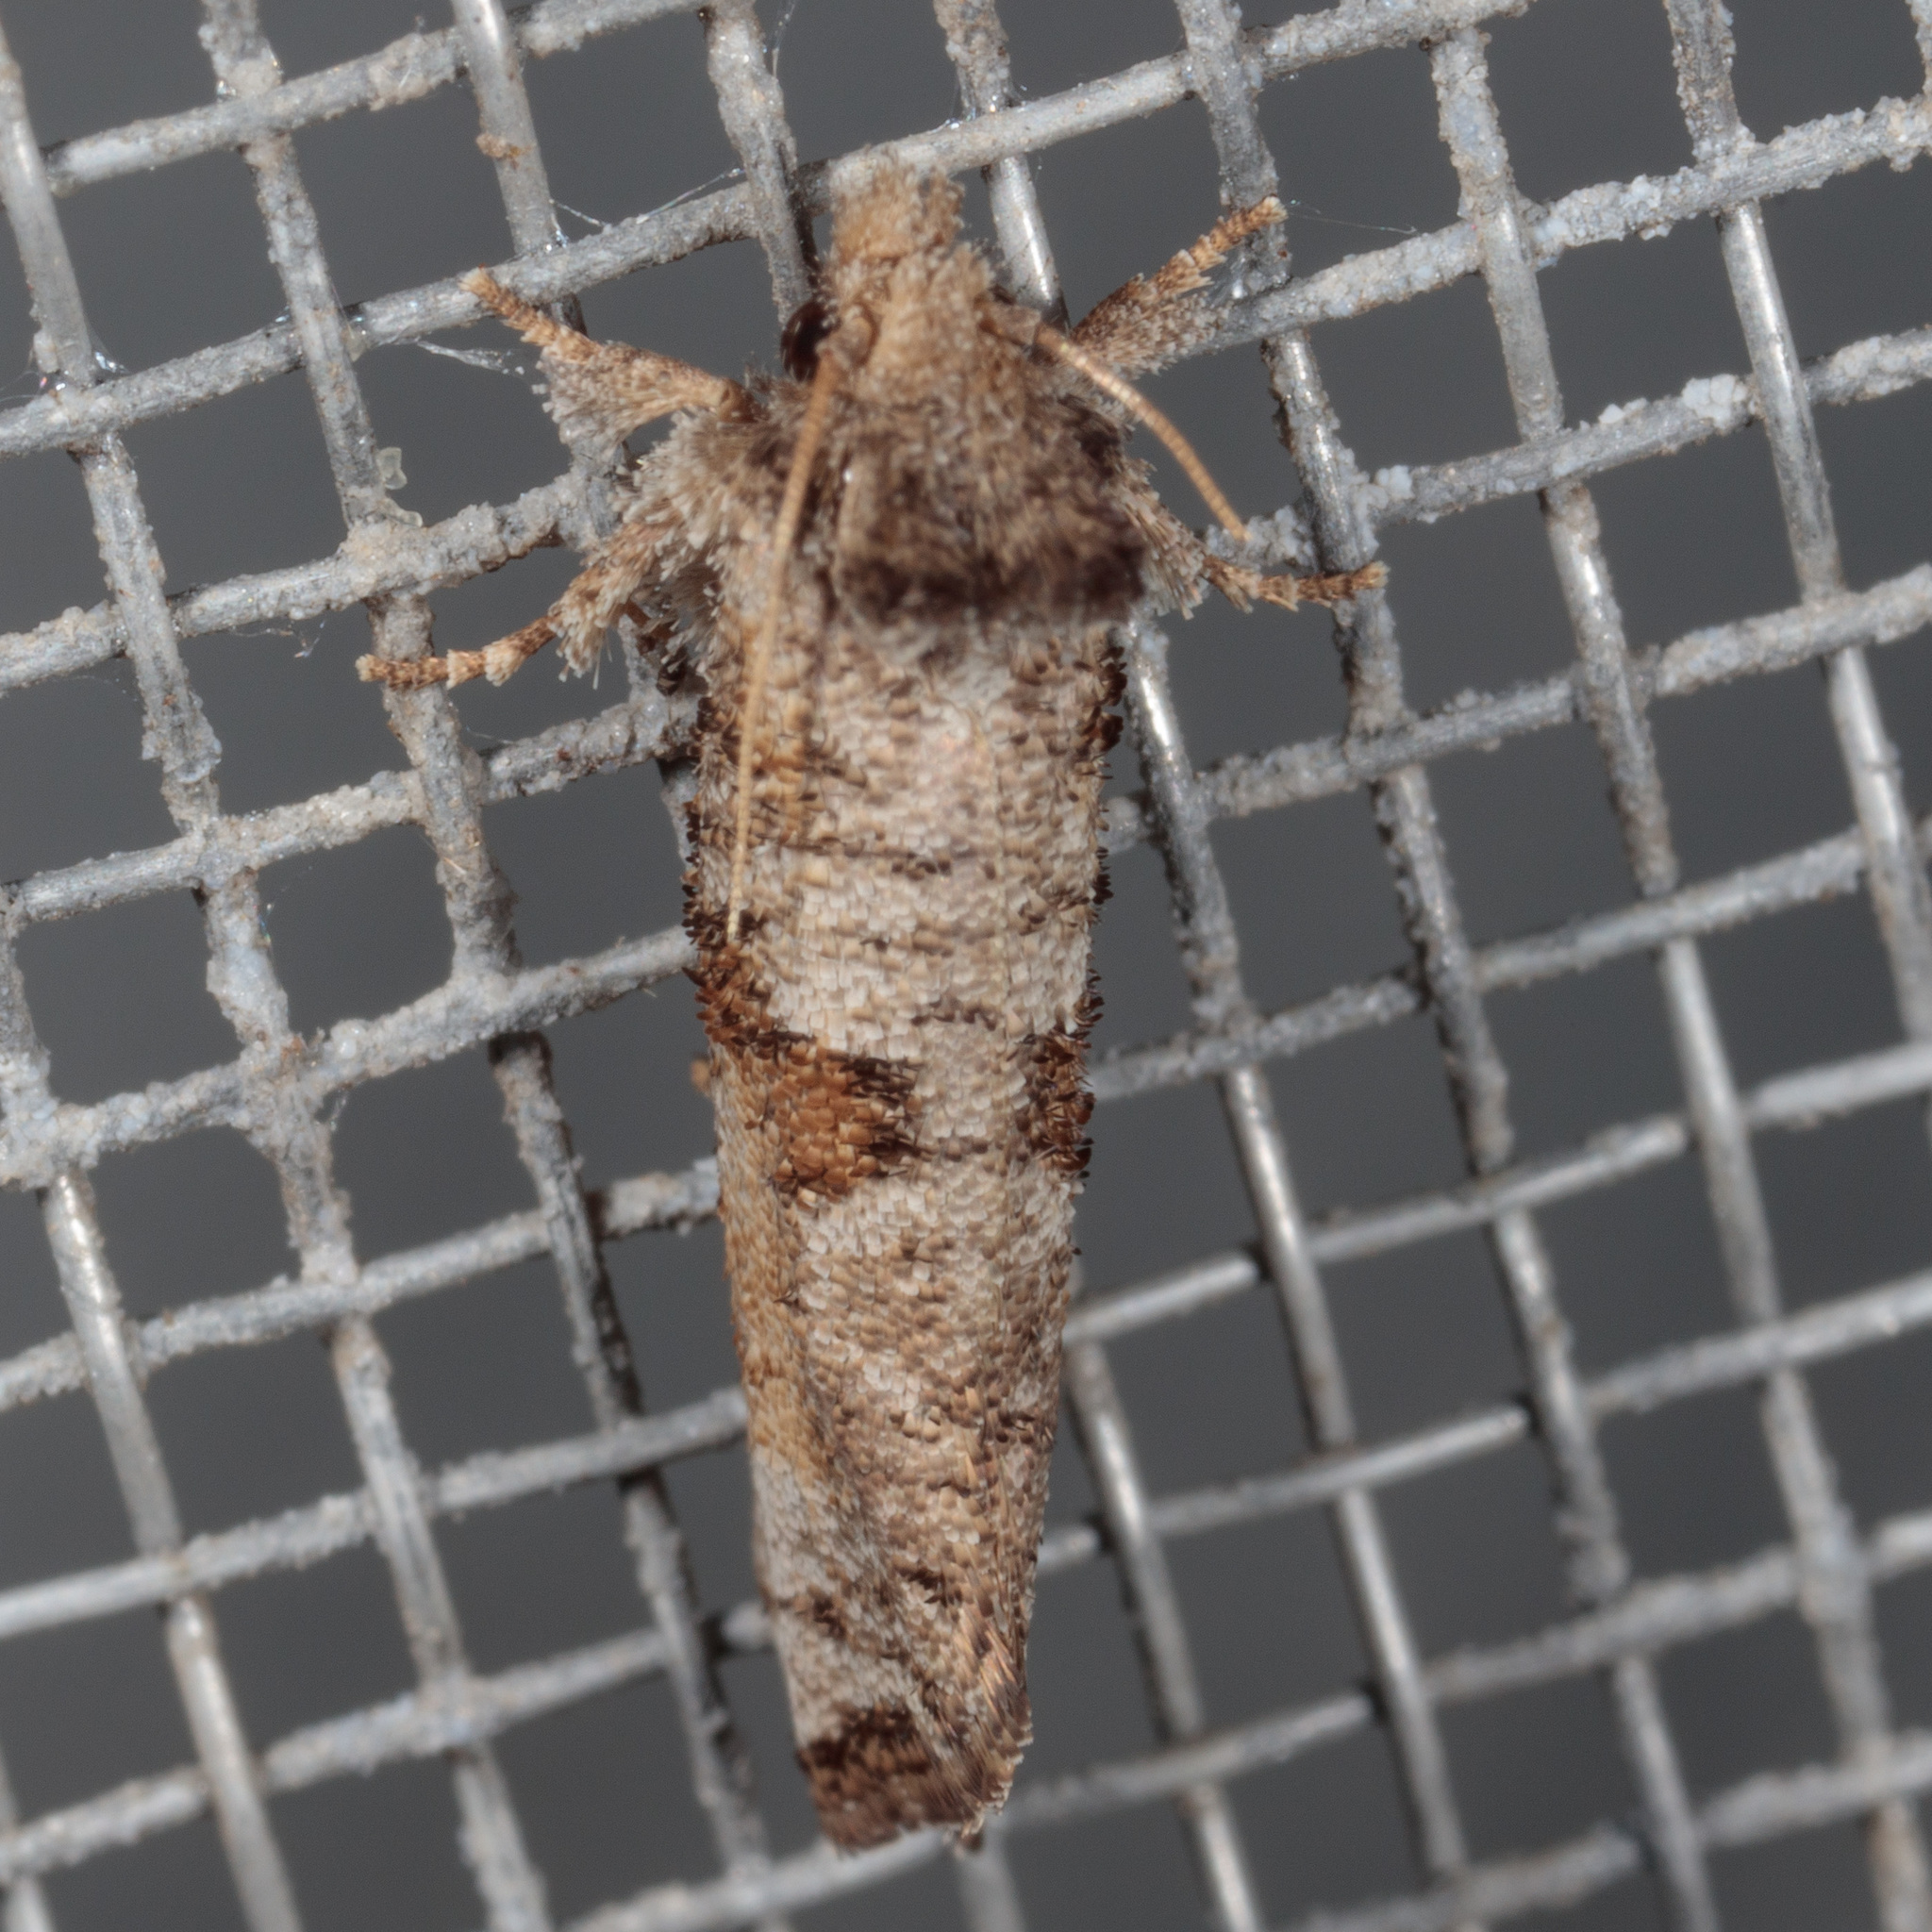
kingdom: Animalia
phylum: Arthropoda
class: Insecta
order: Lepidoptera
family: Tineidae
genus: Acrolophus
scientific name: Acrolophus piger
